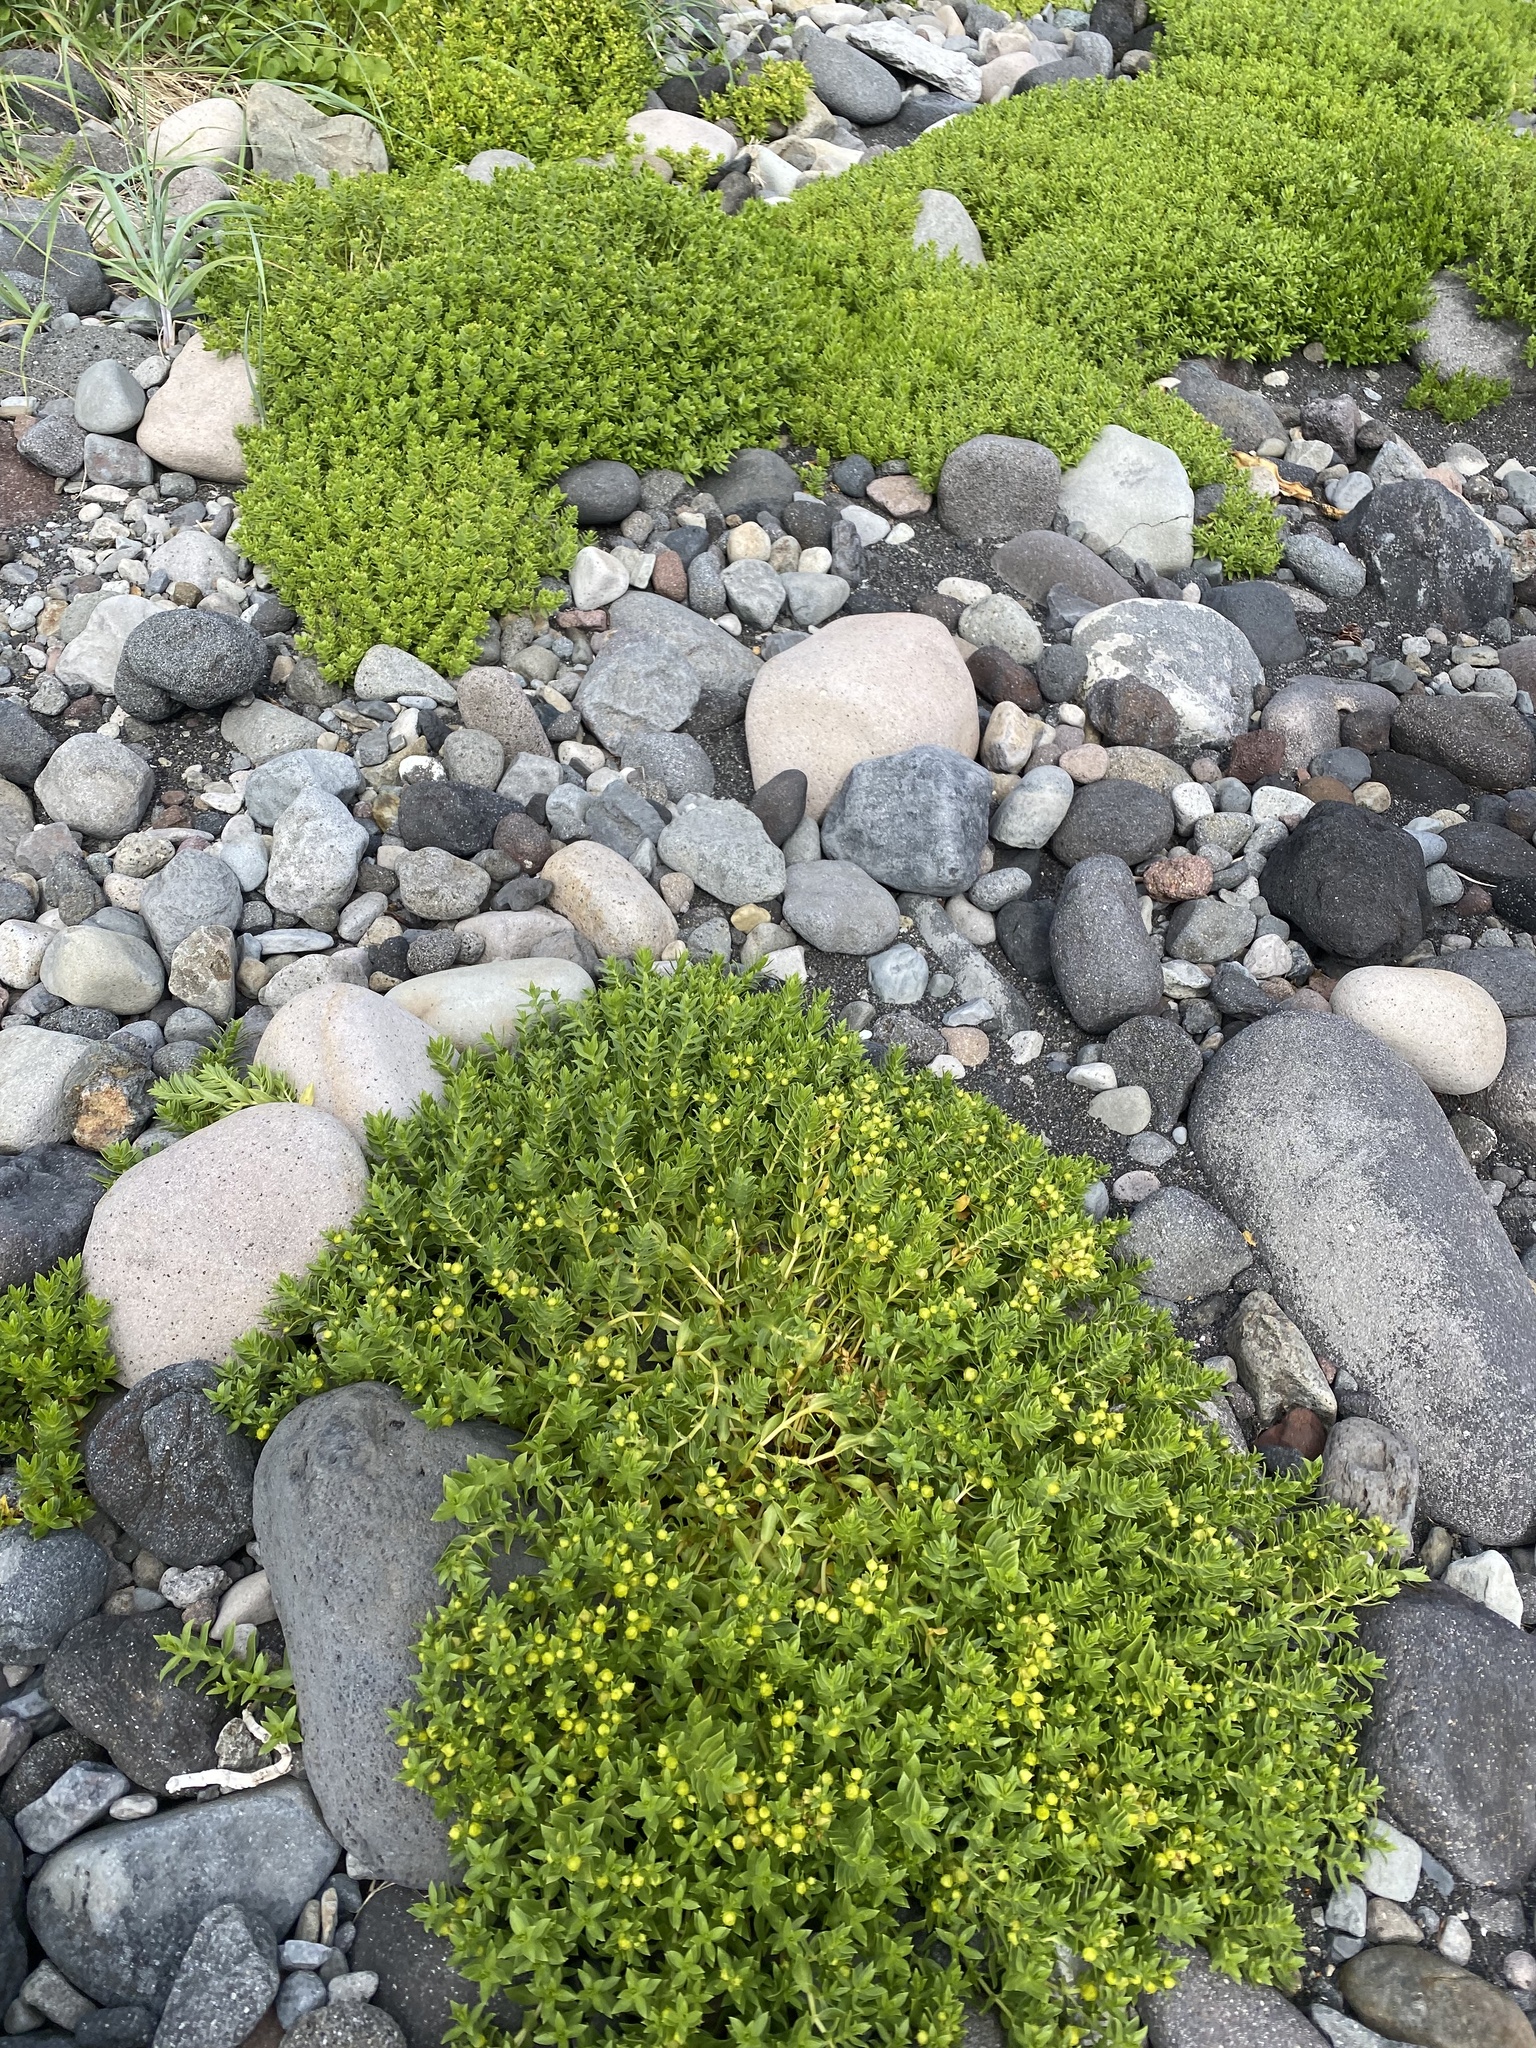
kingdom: Plantae
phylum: Tracheophyta
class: Magnoliopsida
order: Caryophyllales
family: Caryophyllaceae
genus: Honckenya
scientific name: Honckenya peploides
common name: Sea sandwort
